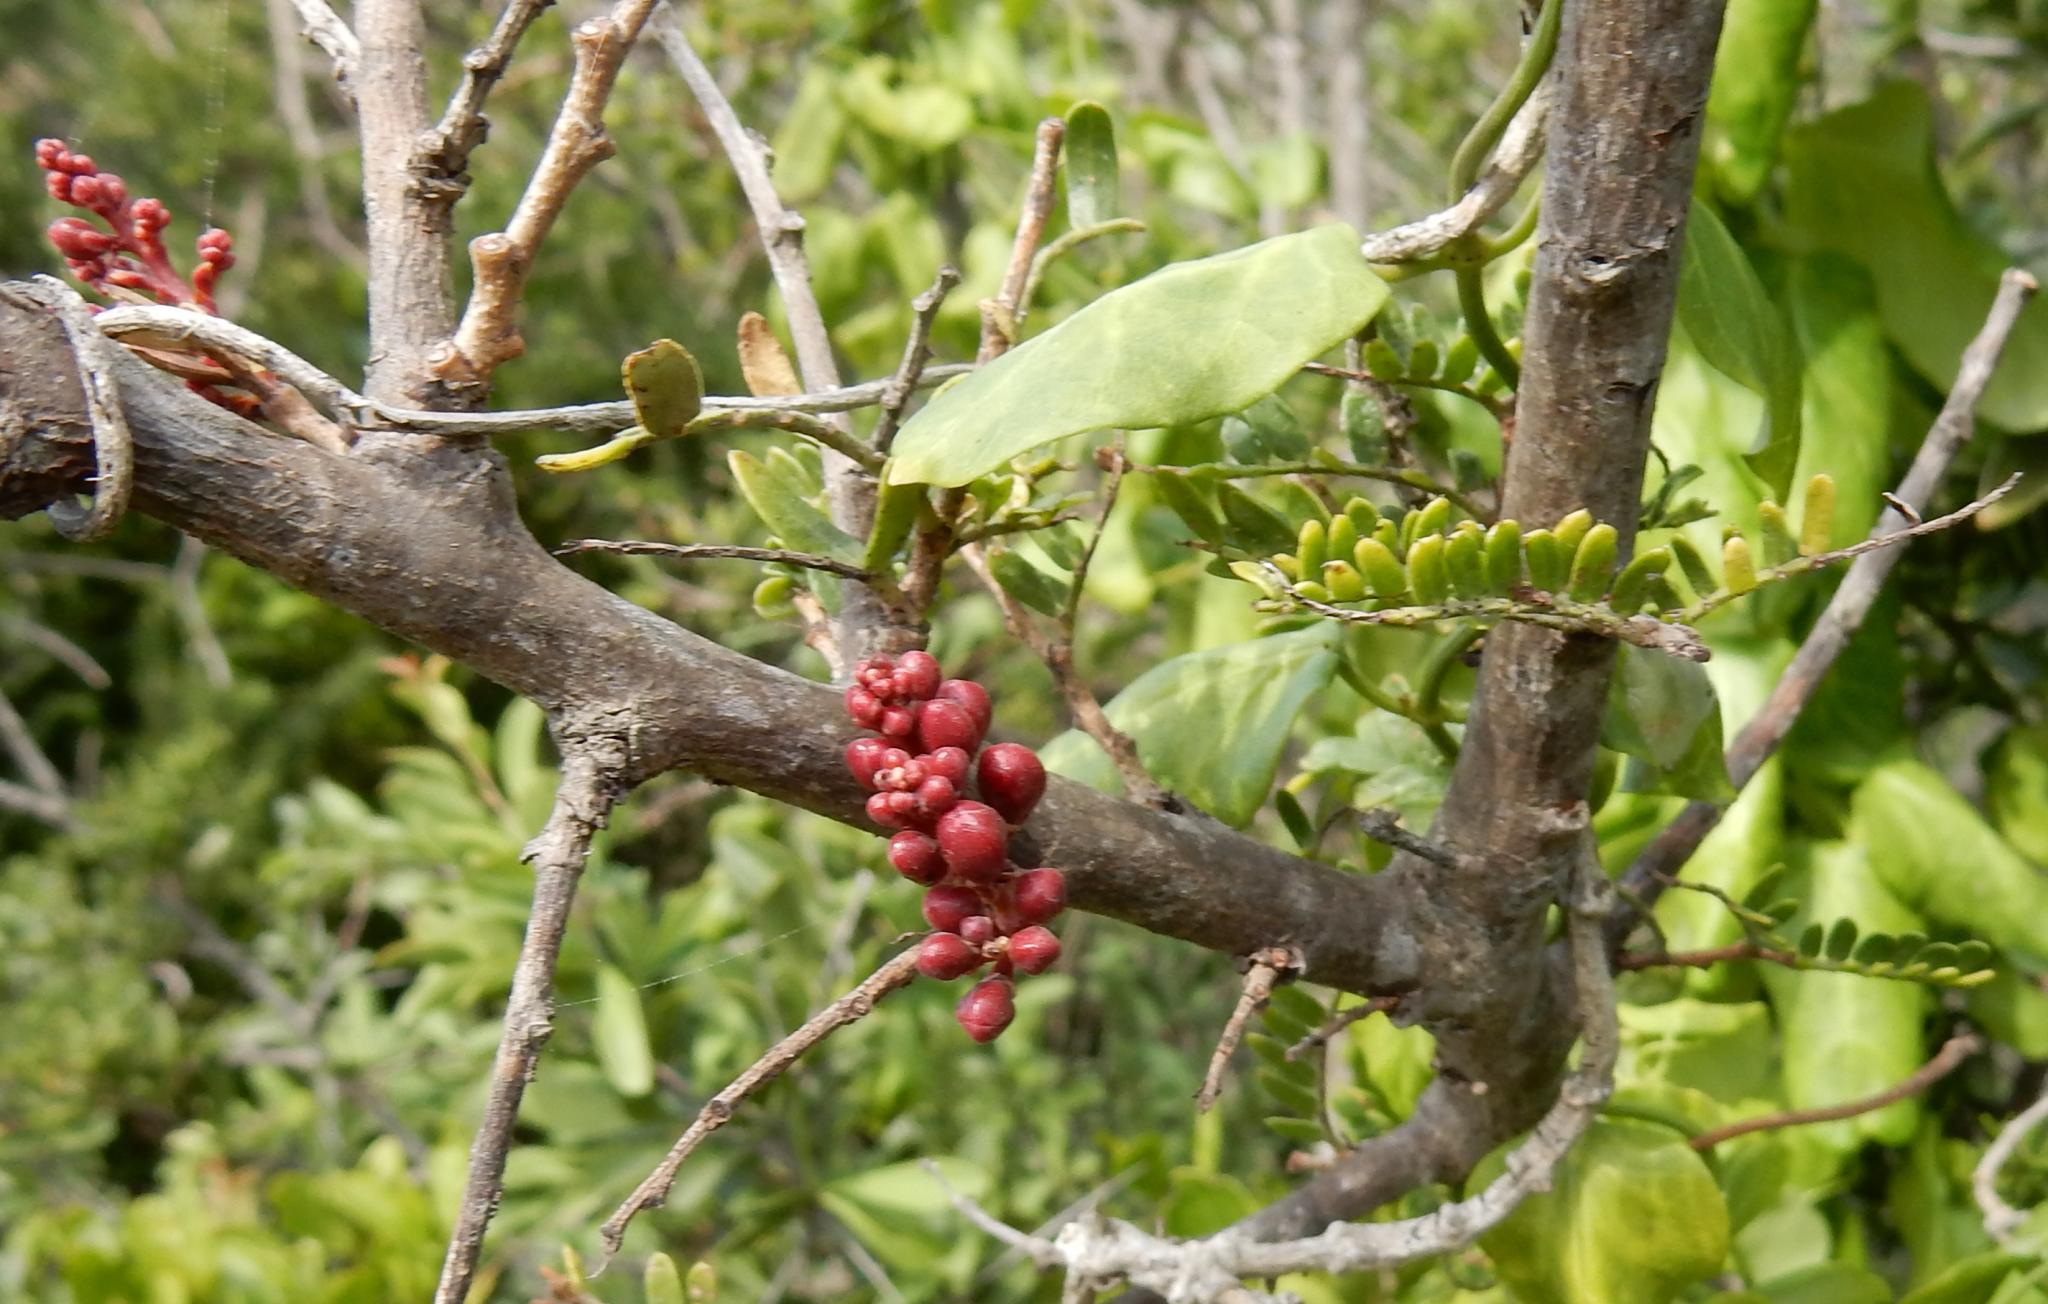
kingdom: Plantae
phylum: Tracheophyta
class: Magnoliopsida
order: Fabales
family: Fabaceae
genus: Schotia
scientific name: Schotia afra
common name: Hottentot's bean
